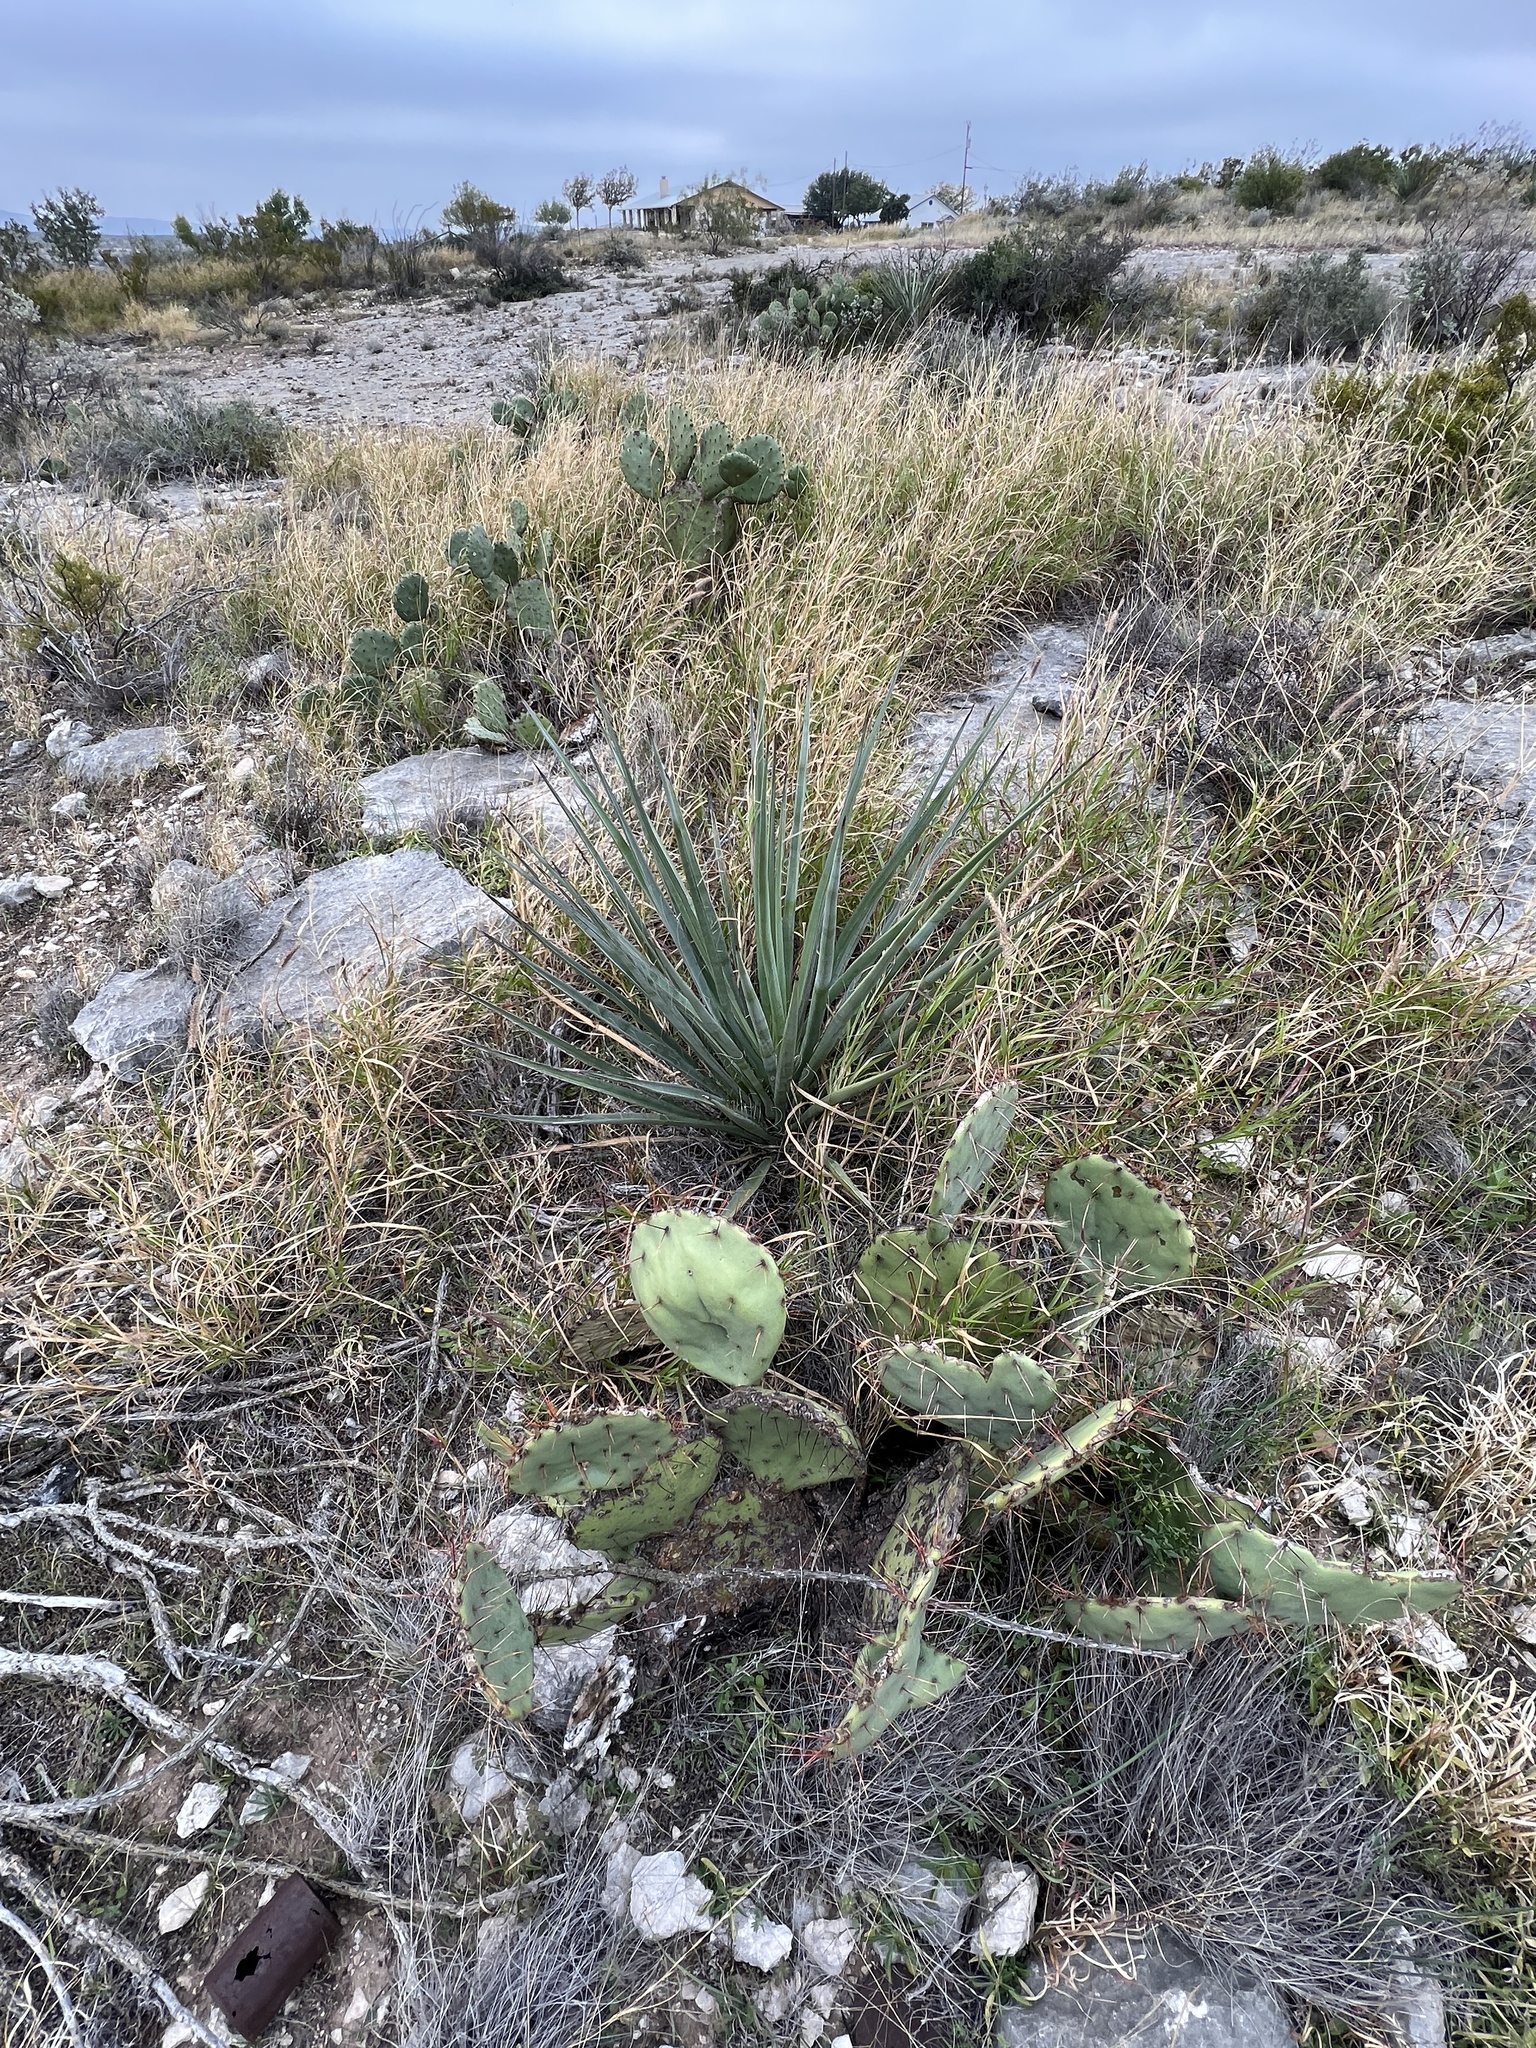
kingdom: Plantae
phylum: Tracheophyta
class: Liliopsida
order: Asparagales
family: Asparagaceae
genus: Yucca
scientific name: Yucca treculiana
